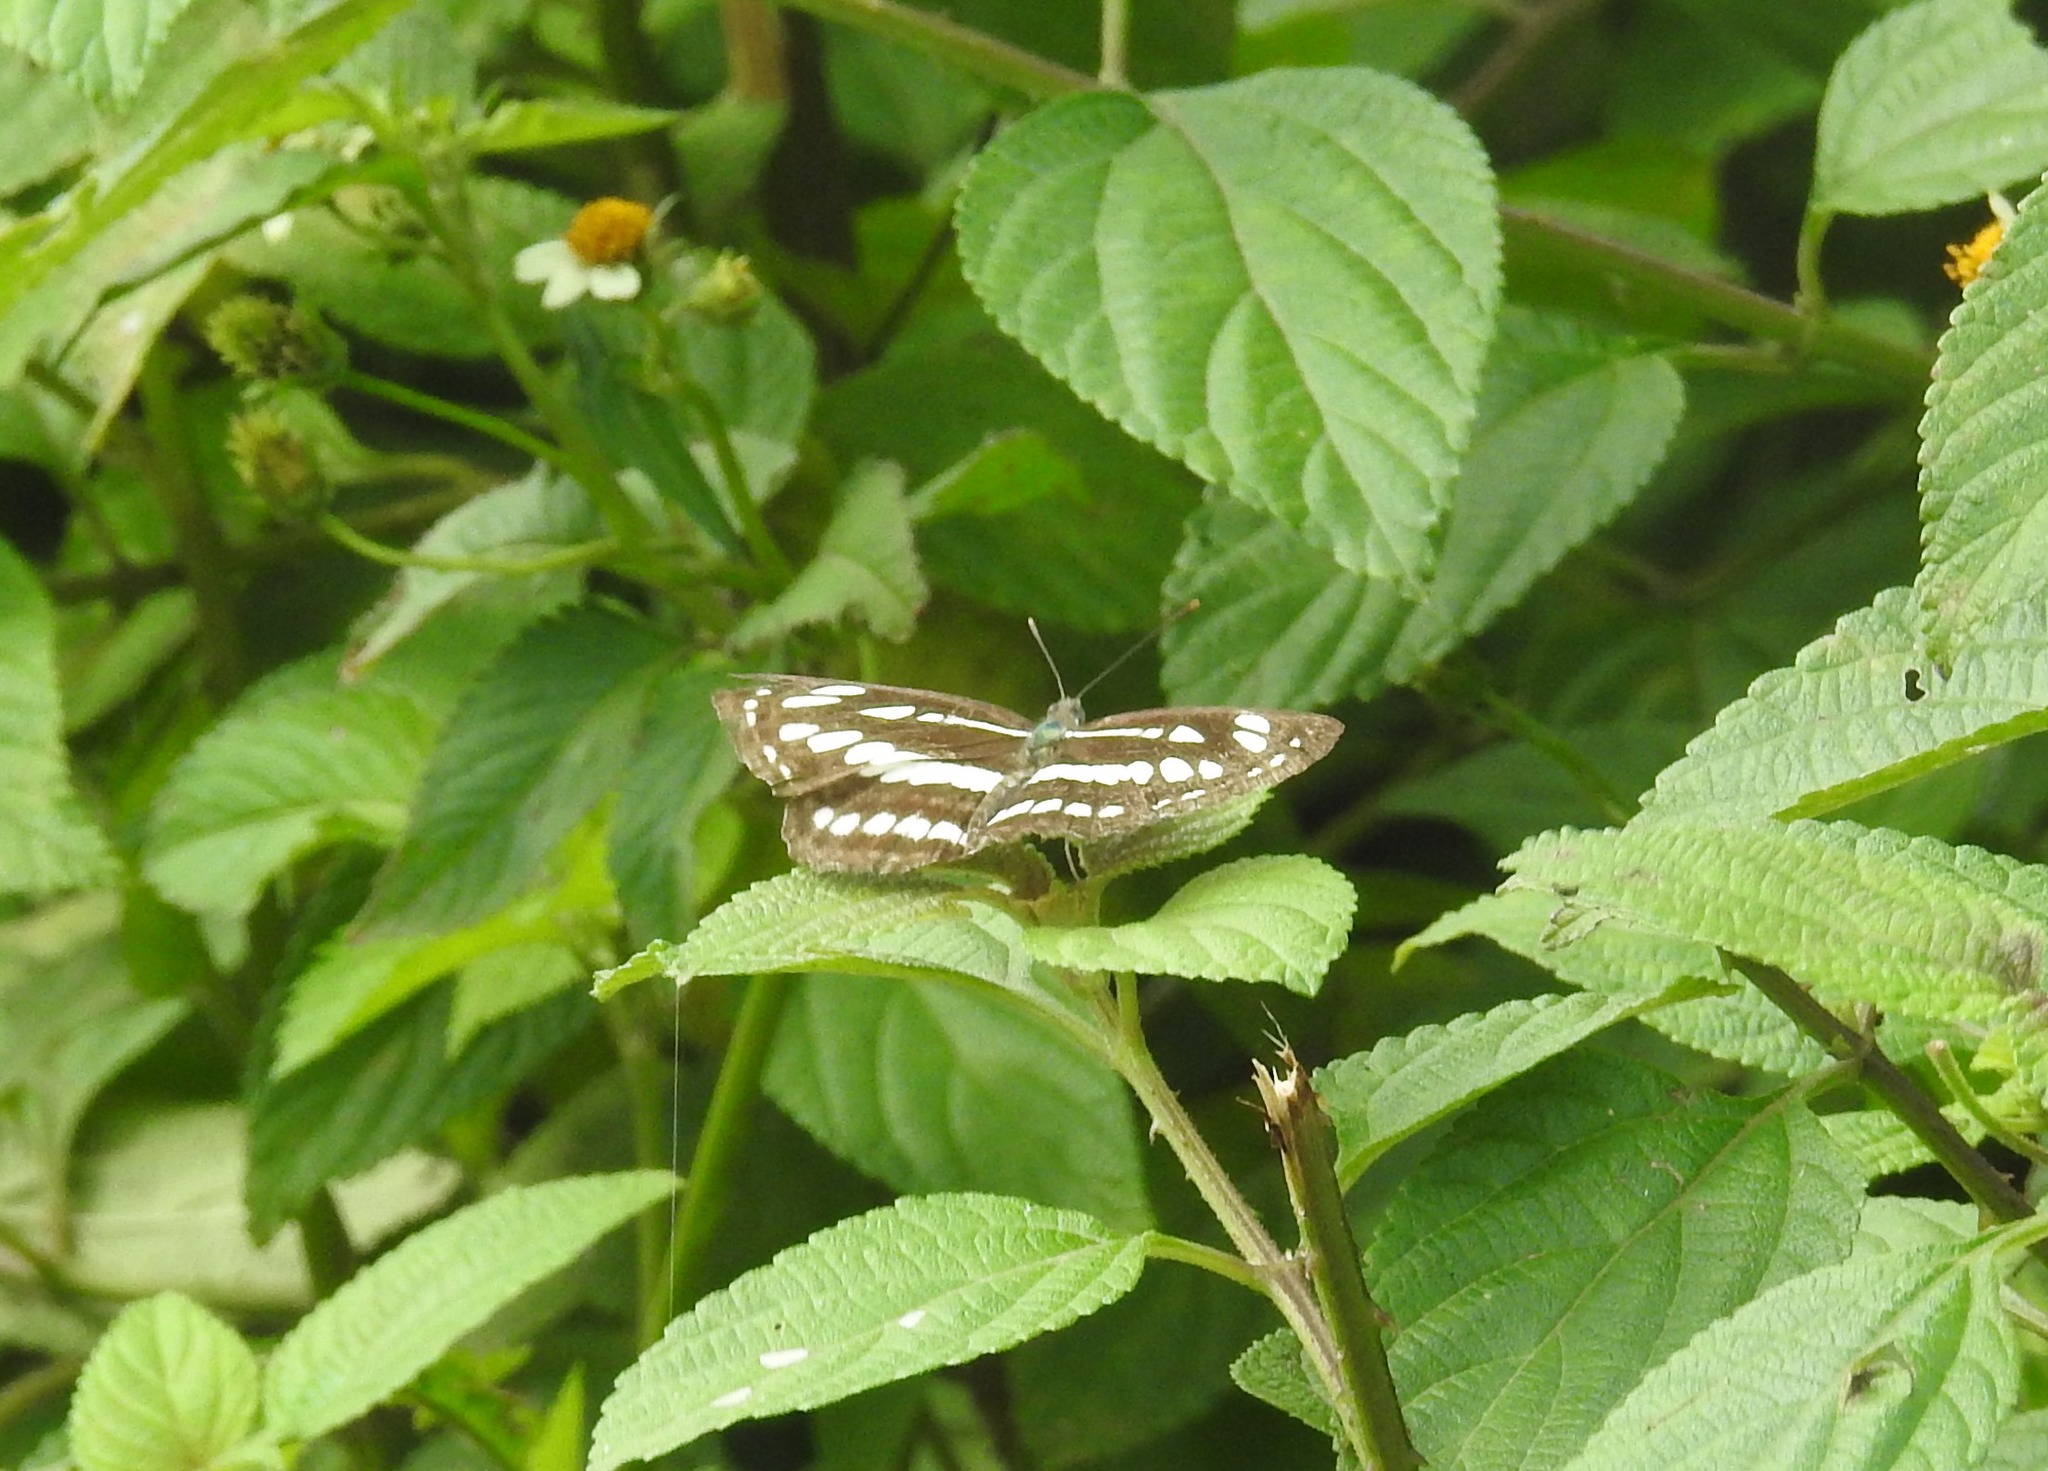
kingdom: Animalia
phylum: Arthropoda
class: Insecta
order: Lepidoptera
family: Nymphalidae
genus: Neptis
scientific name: Neptis hylas
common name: Common sailer
